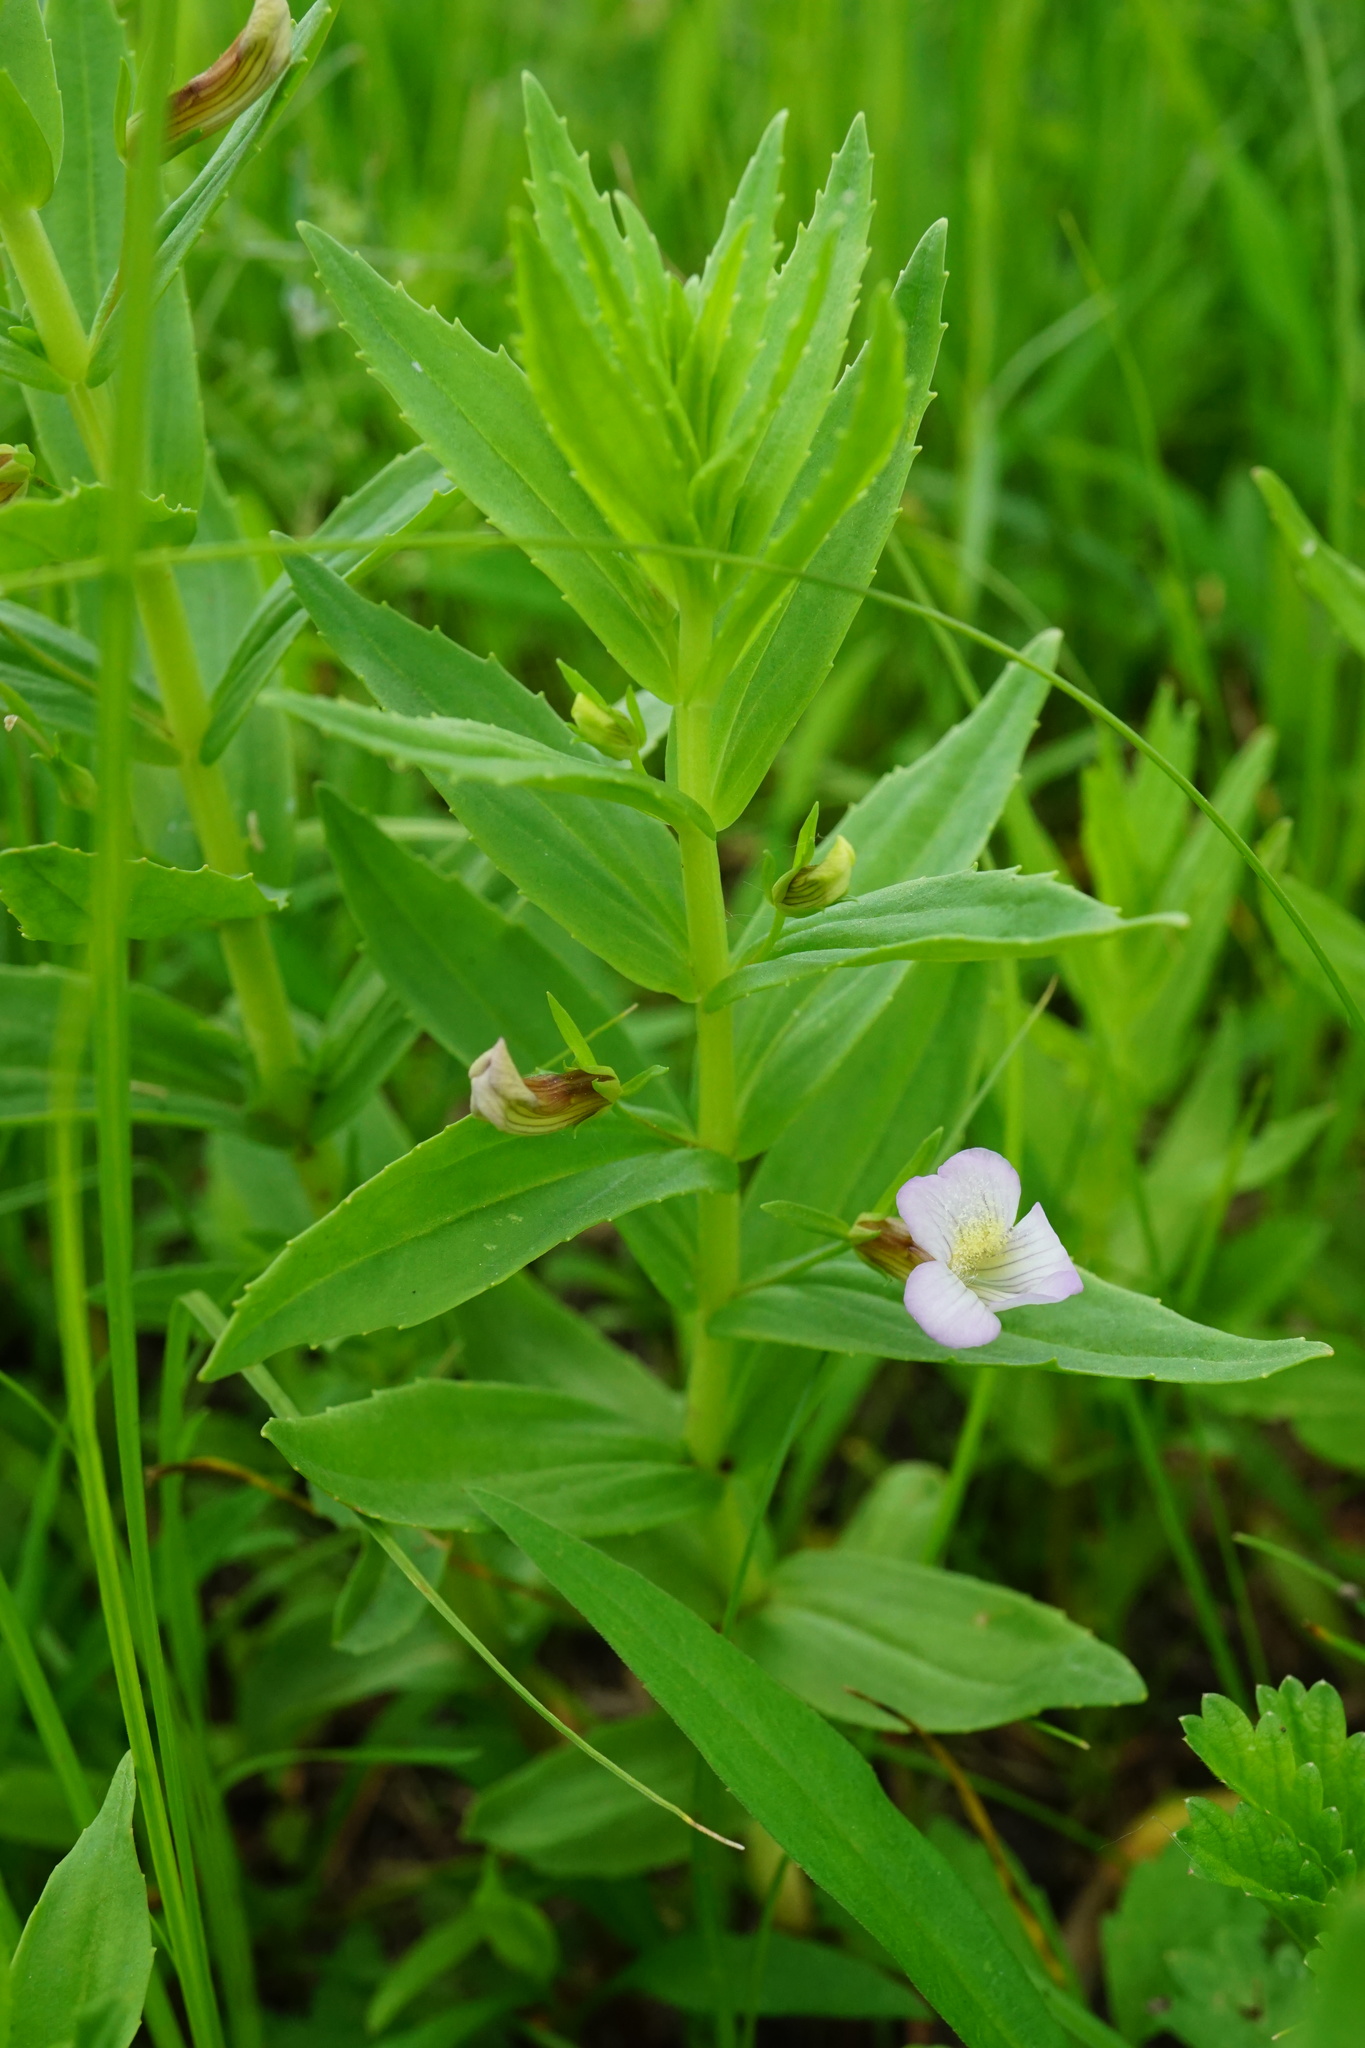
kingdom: Plantae
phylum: Tracheophyta
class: Magnoliopsida
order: Lamiales
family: Plantaginaceae
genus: Gratiola
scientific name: Gratiola officinalis
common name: Gratiola
